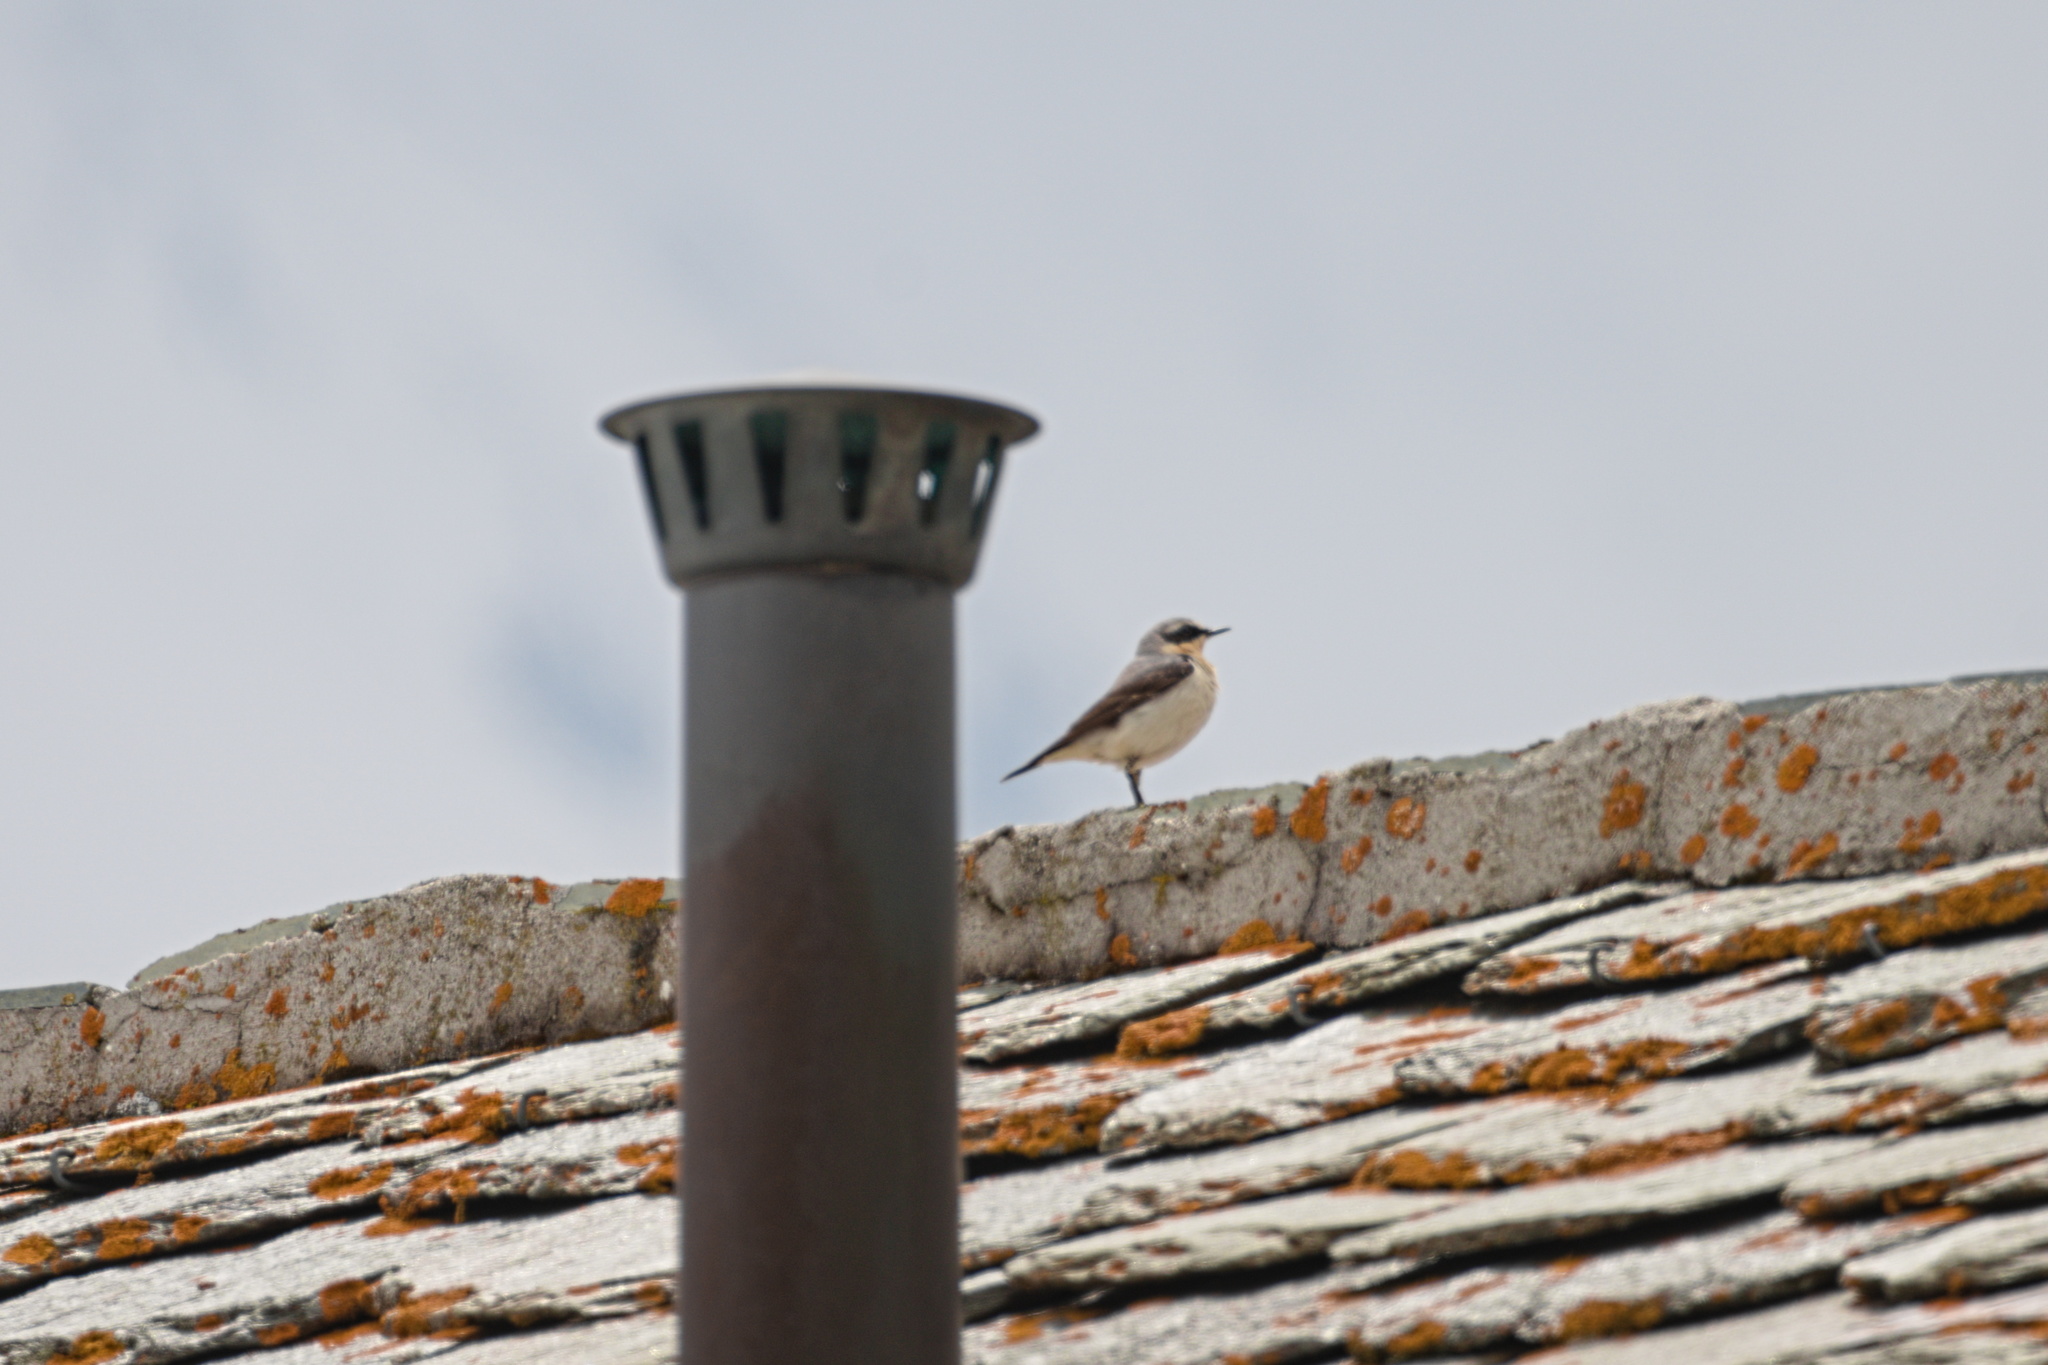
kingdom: Animalia
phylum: Chordata
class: Aves
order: Passeriformes
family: Muscicapidae
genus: Oenanthe
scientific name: Oenanthe oenanthe
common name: Northern wheatear
